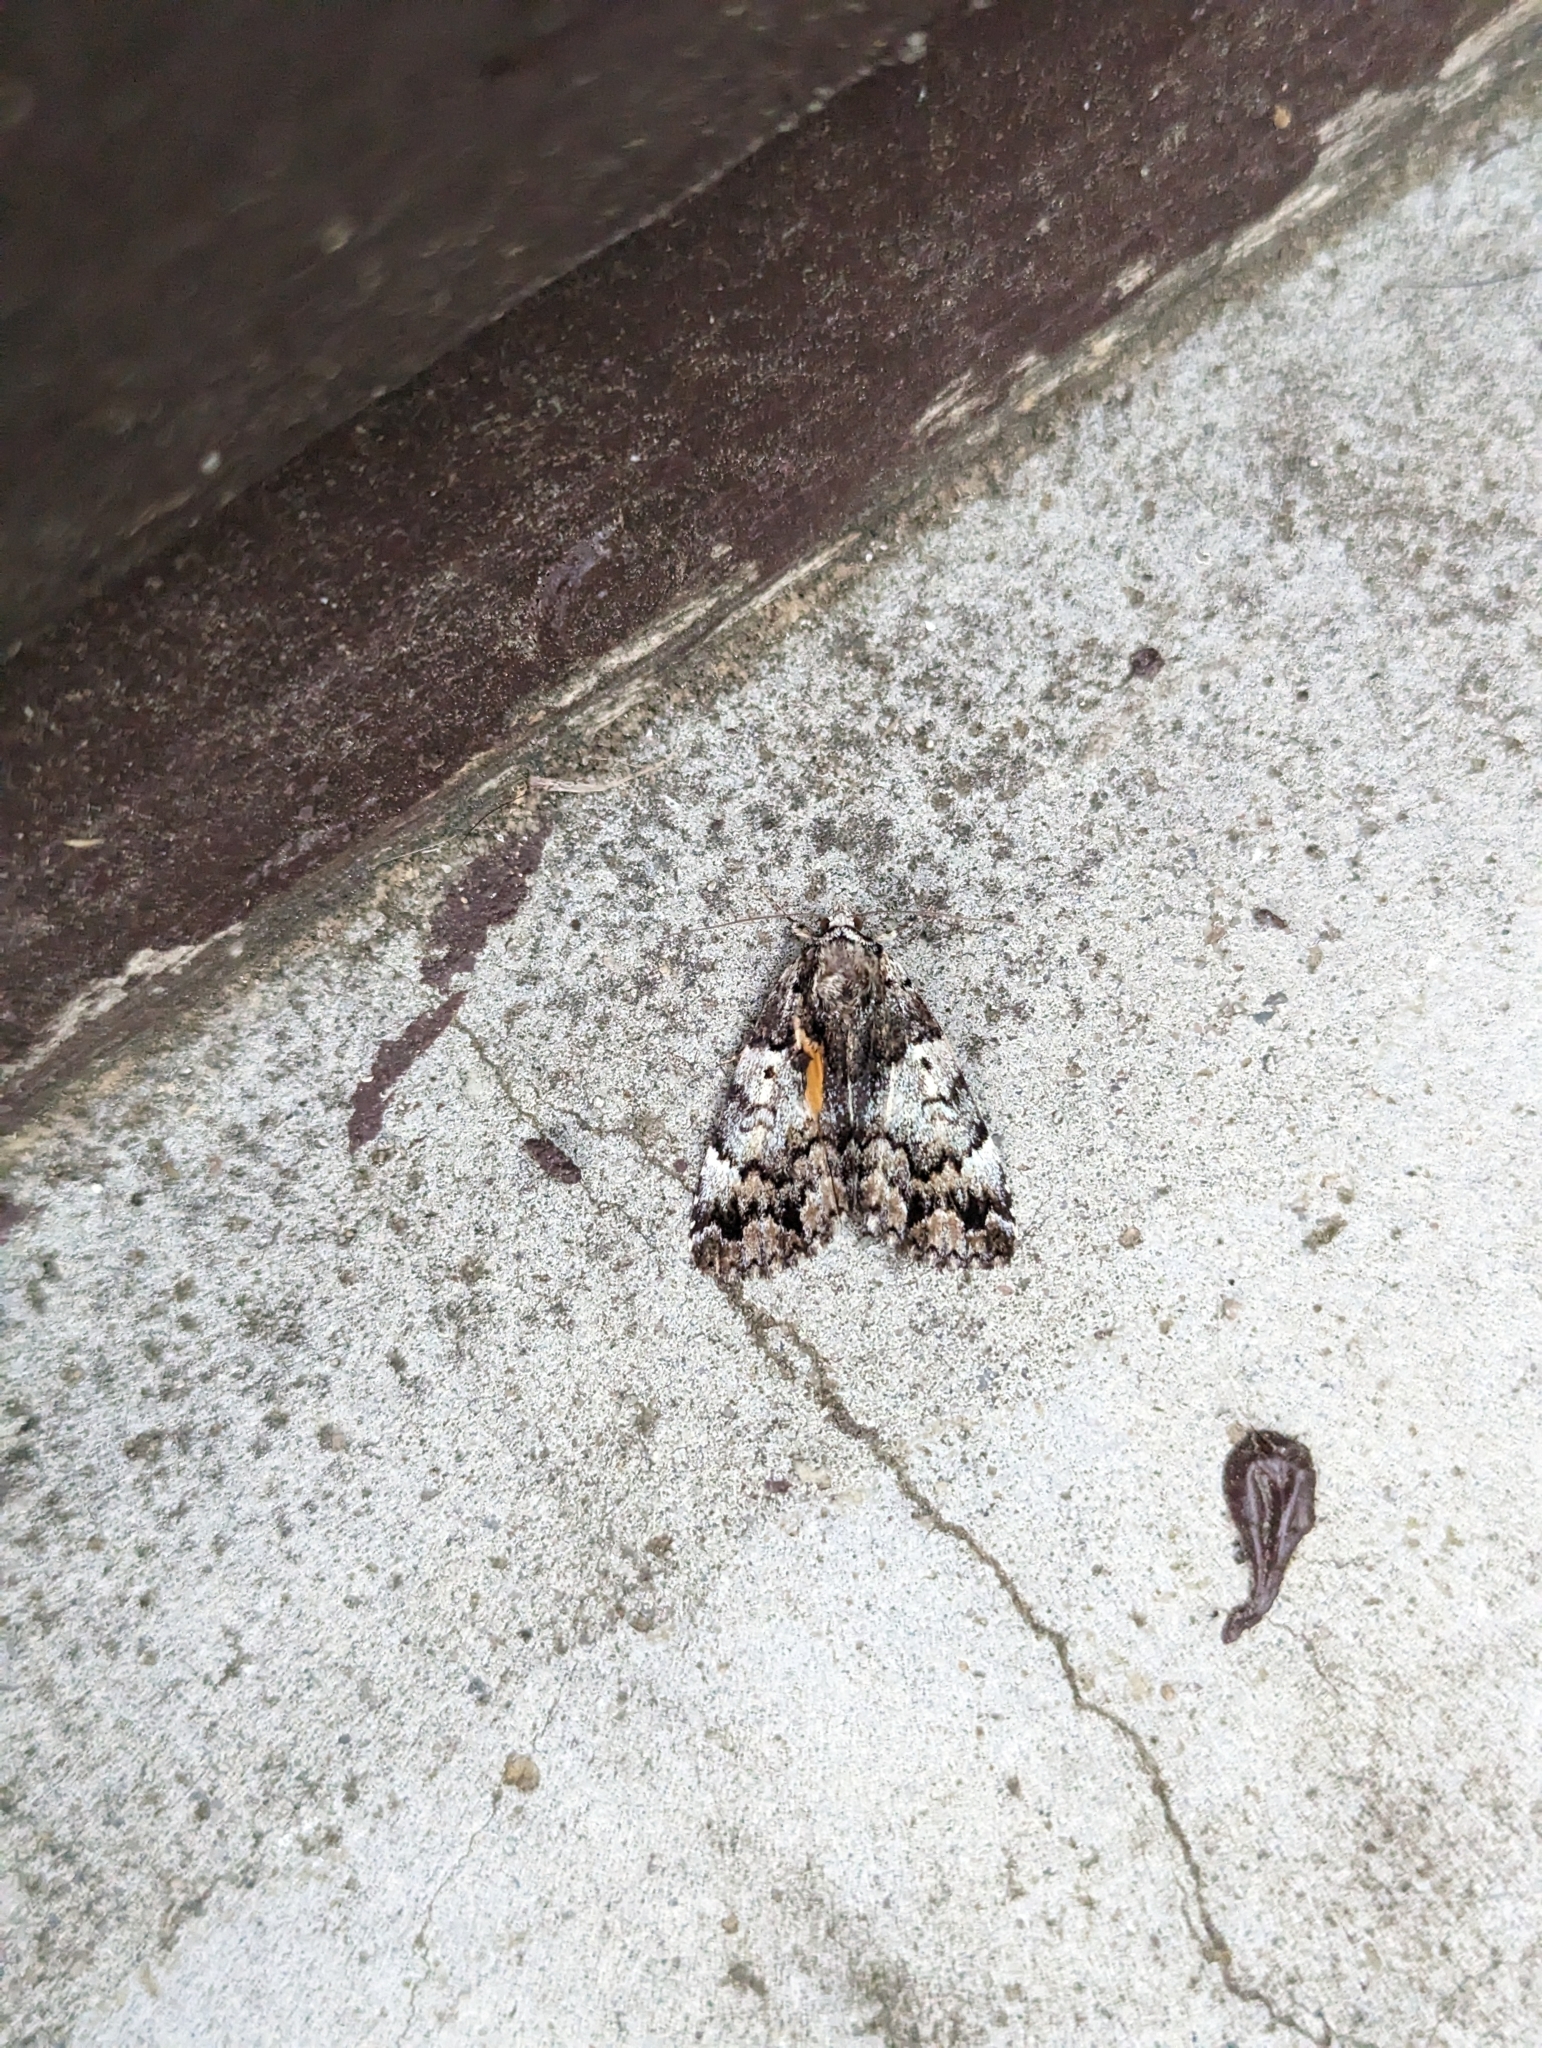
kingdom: Animalia
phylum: Arthropoda
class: Insecta
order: Lepidoptera
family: Erebidae
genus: Allotria
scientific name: Allotria elonympha
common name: False underwing
